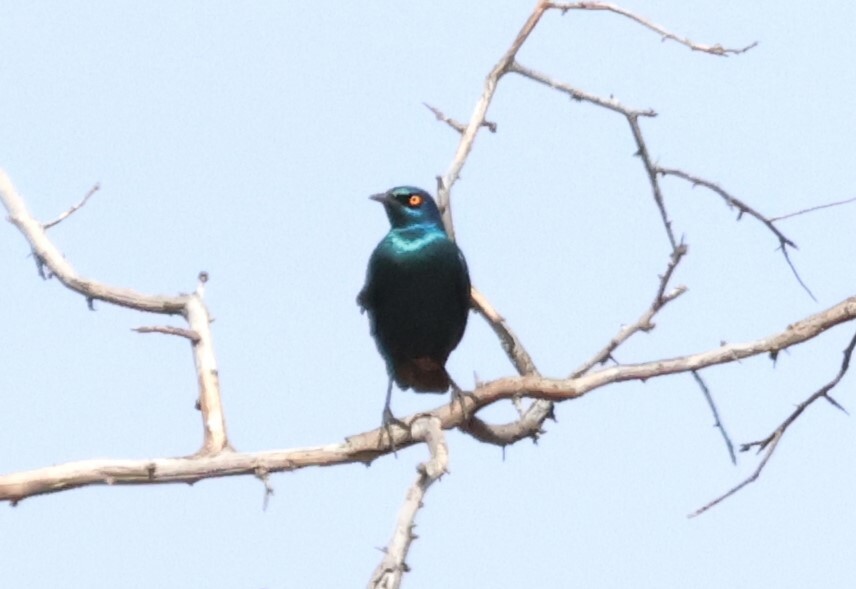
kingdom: Animalia
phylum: Chordata
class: Aves
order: Passeriformes
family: Sturnidae
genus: Lamprotornis
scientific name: Lamprotornis nitens
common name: Cape starling
